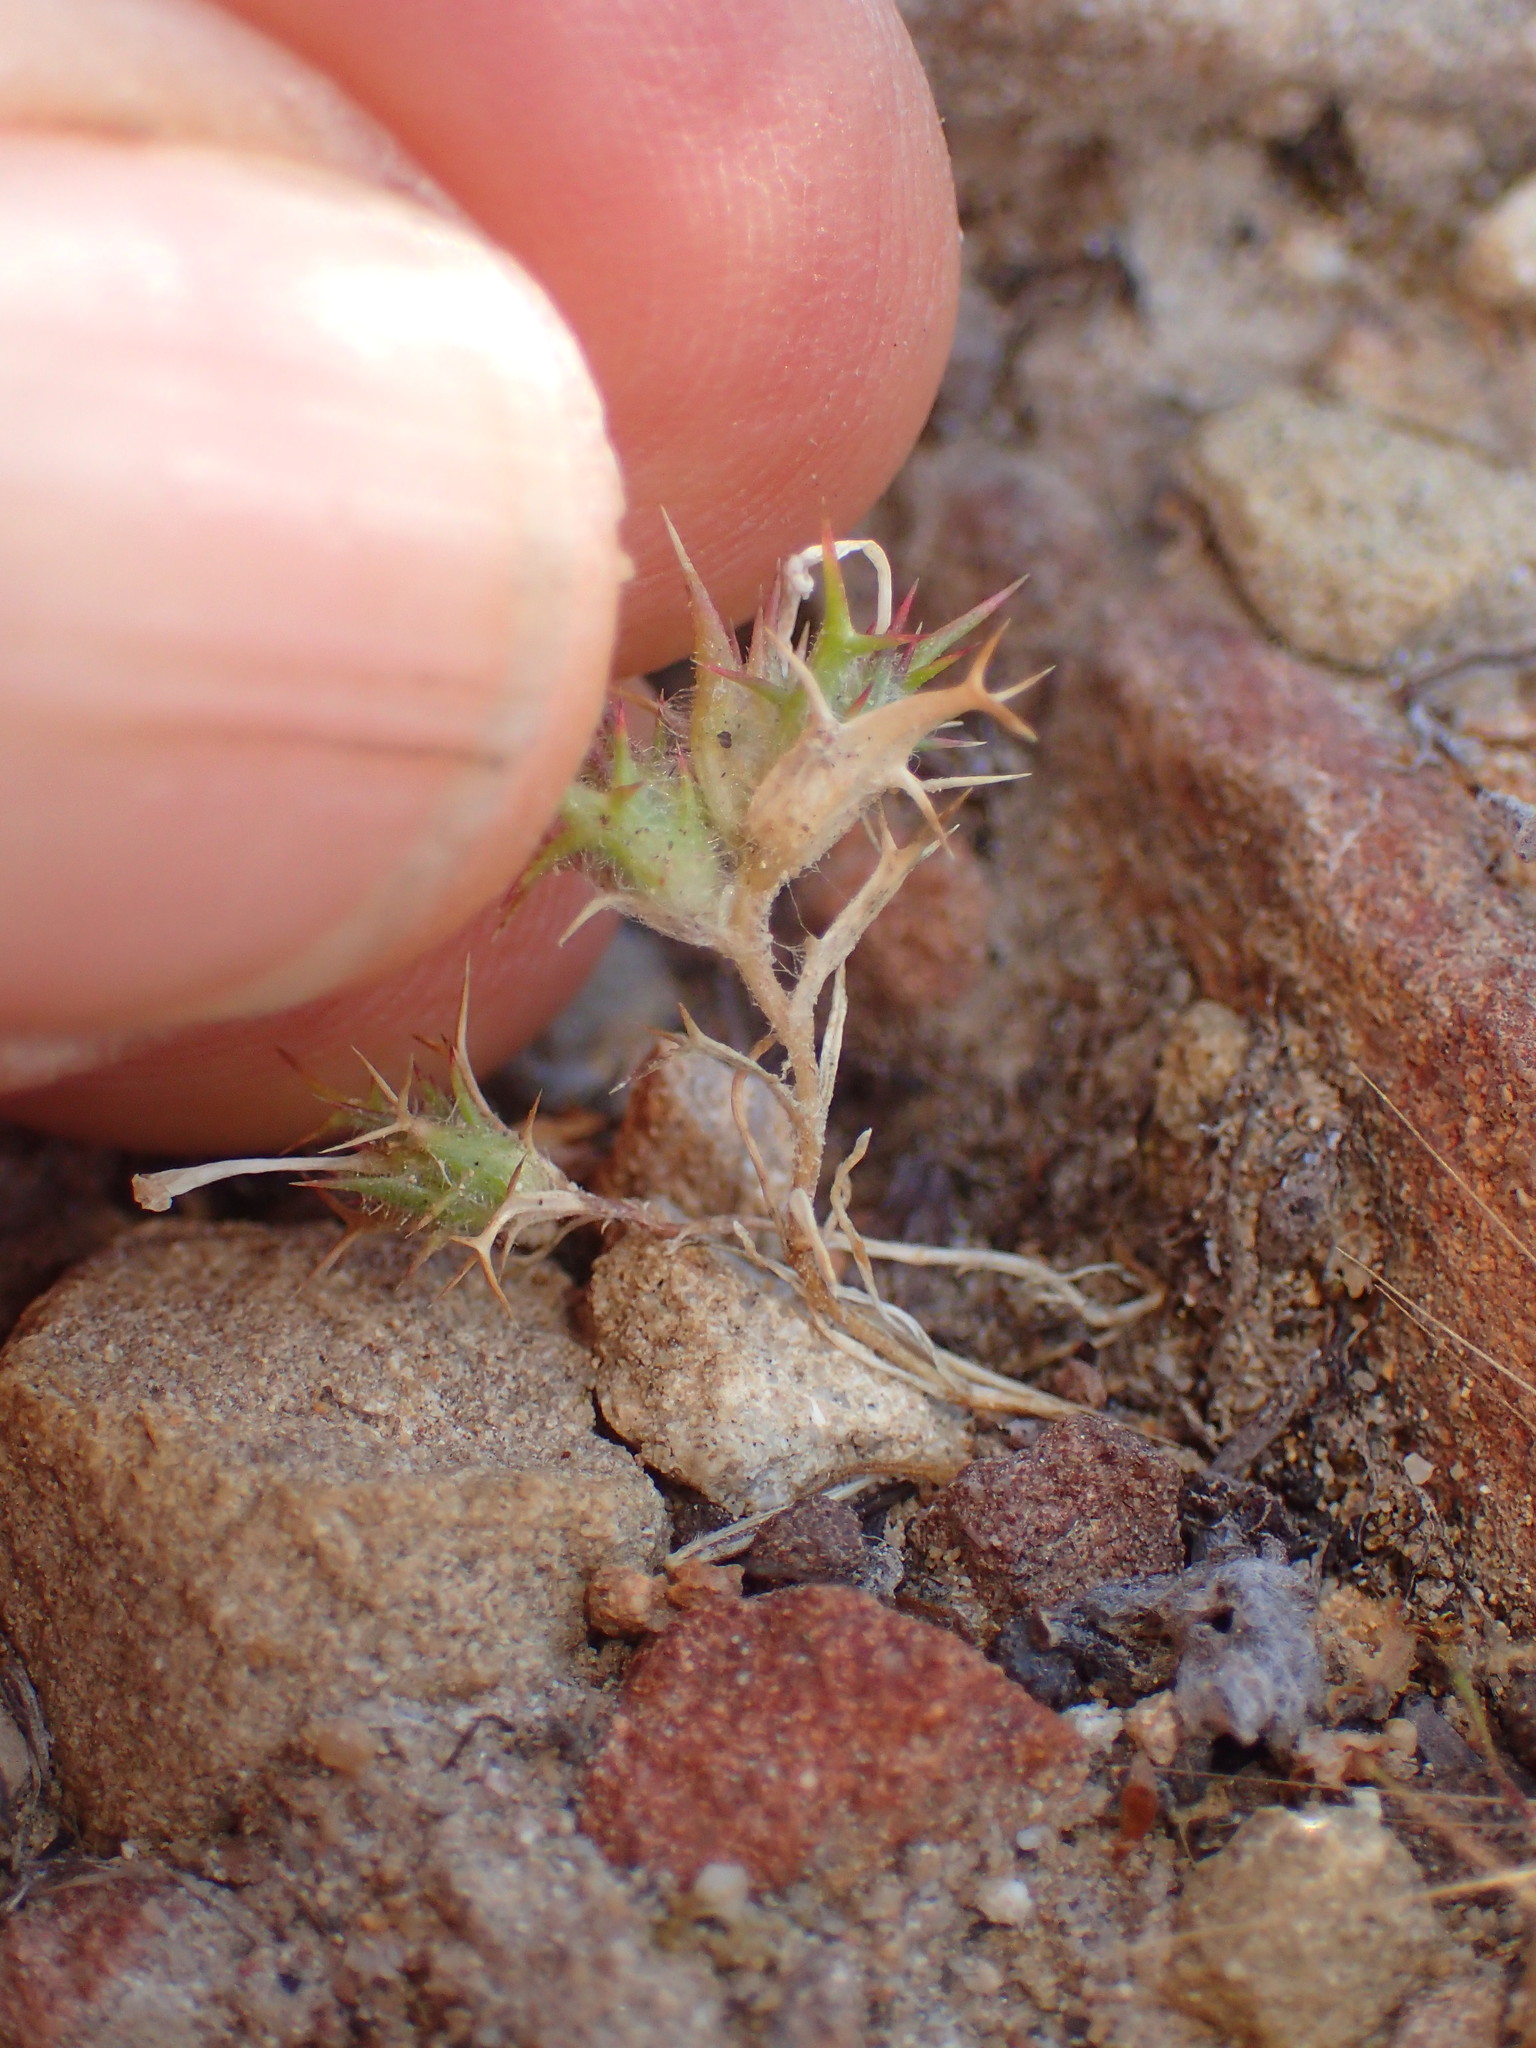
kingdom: Plantae
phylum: Tracheophyta
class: Magnoliopsida
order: Ericales
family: Polemoniaceae
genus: Navarretia
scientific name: Navarretia hamata
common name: Hooked navarretia
